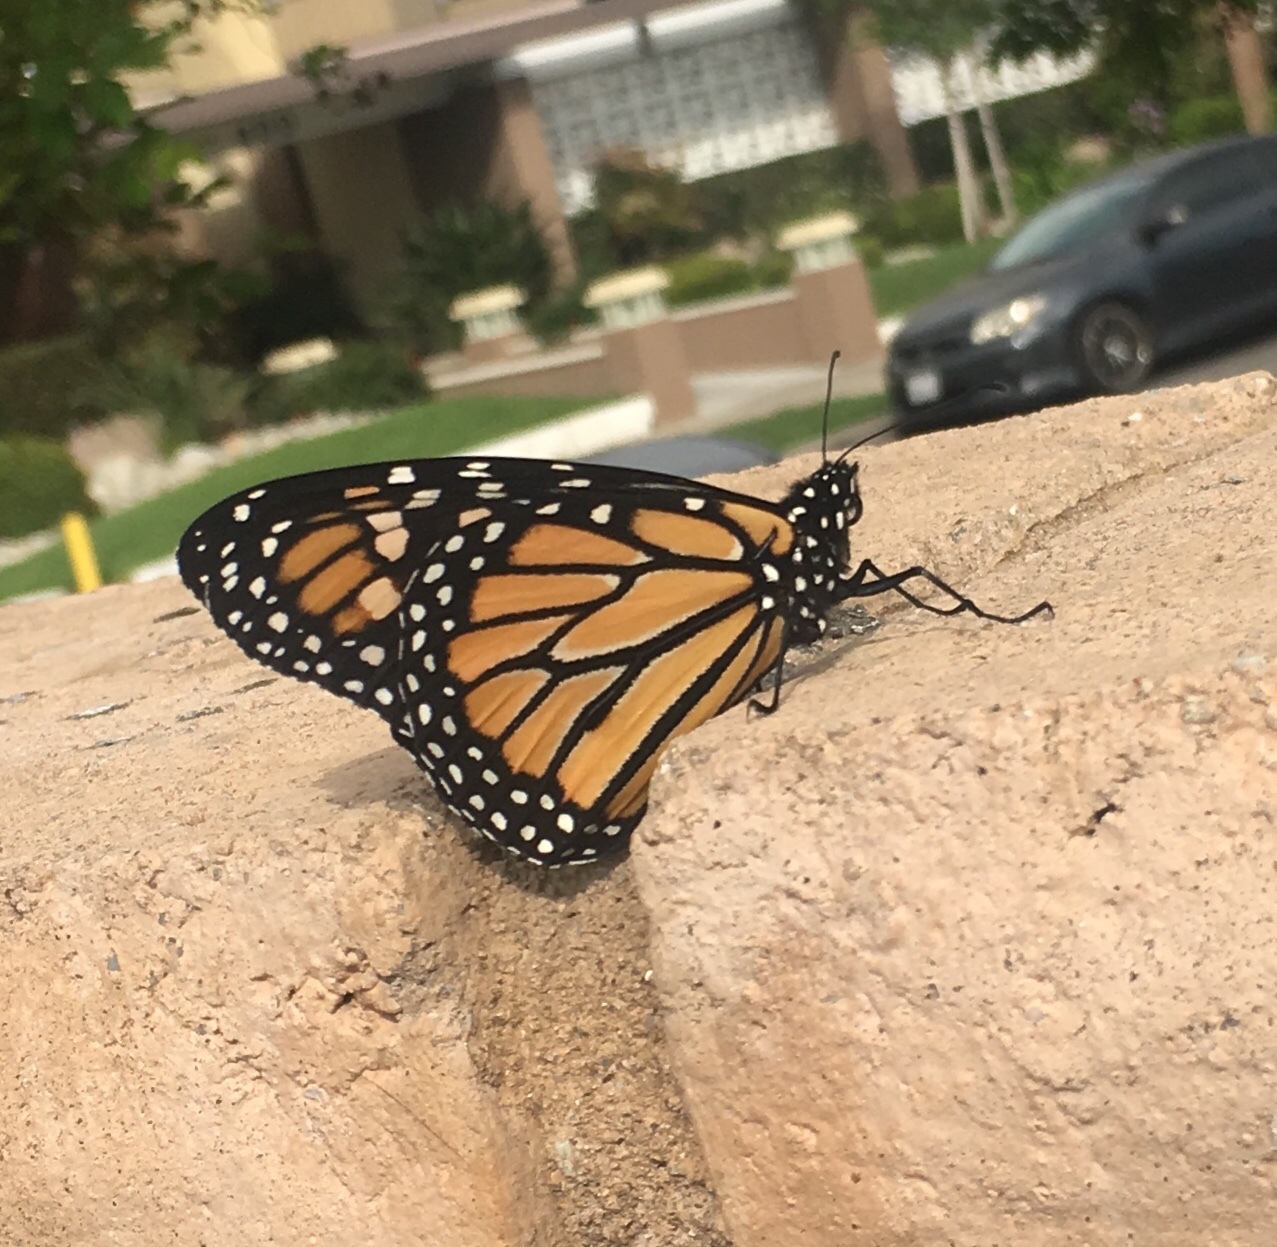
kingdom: Animalia
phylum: Arthropoda
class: Insecta
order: Lepidoptera
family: Nymphalidae
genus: Danaus
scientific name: Danaus plexippus
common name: Monarch
